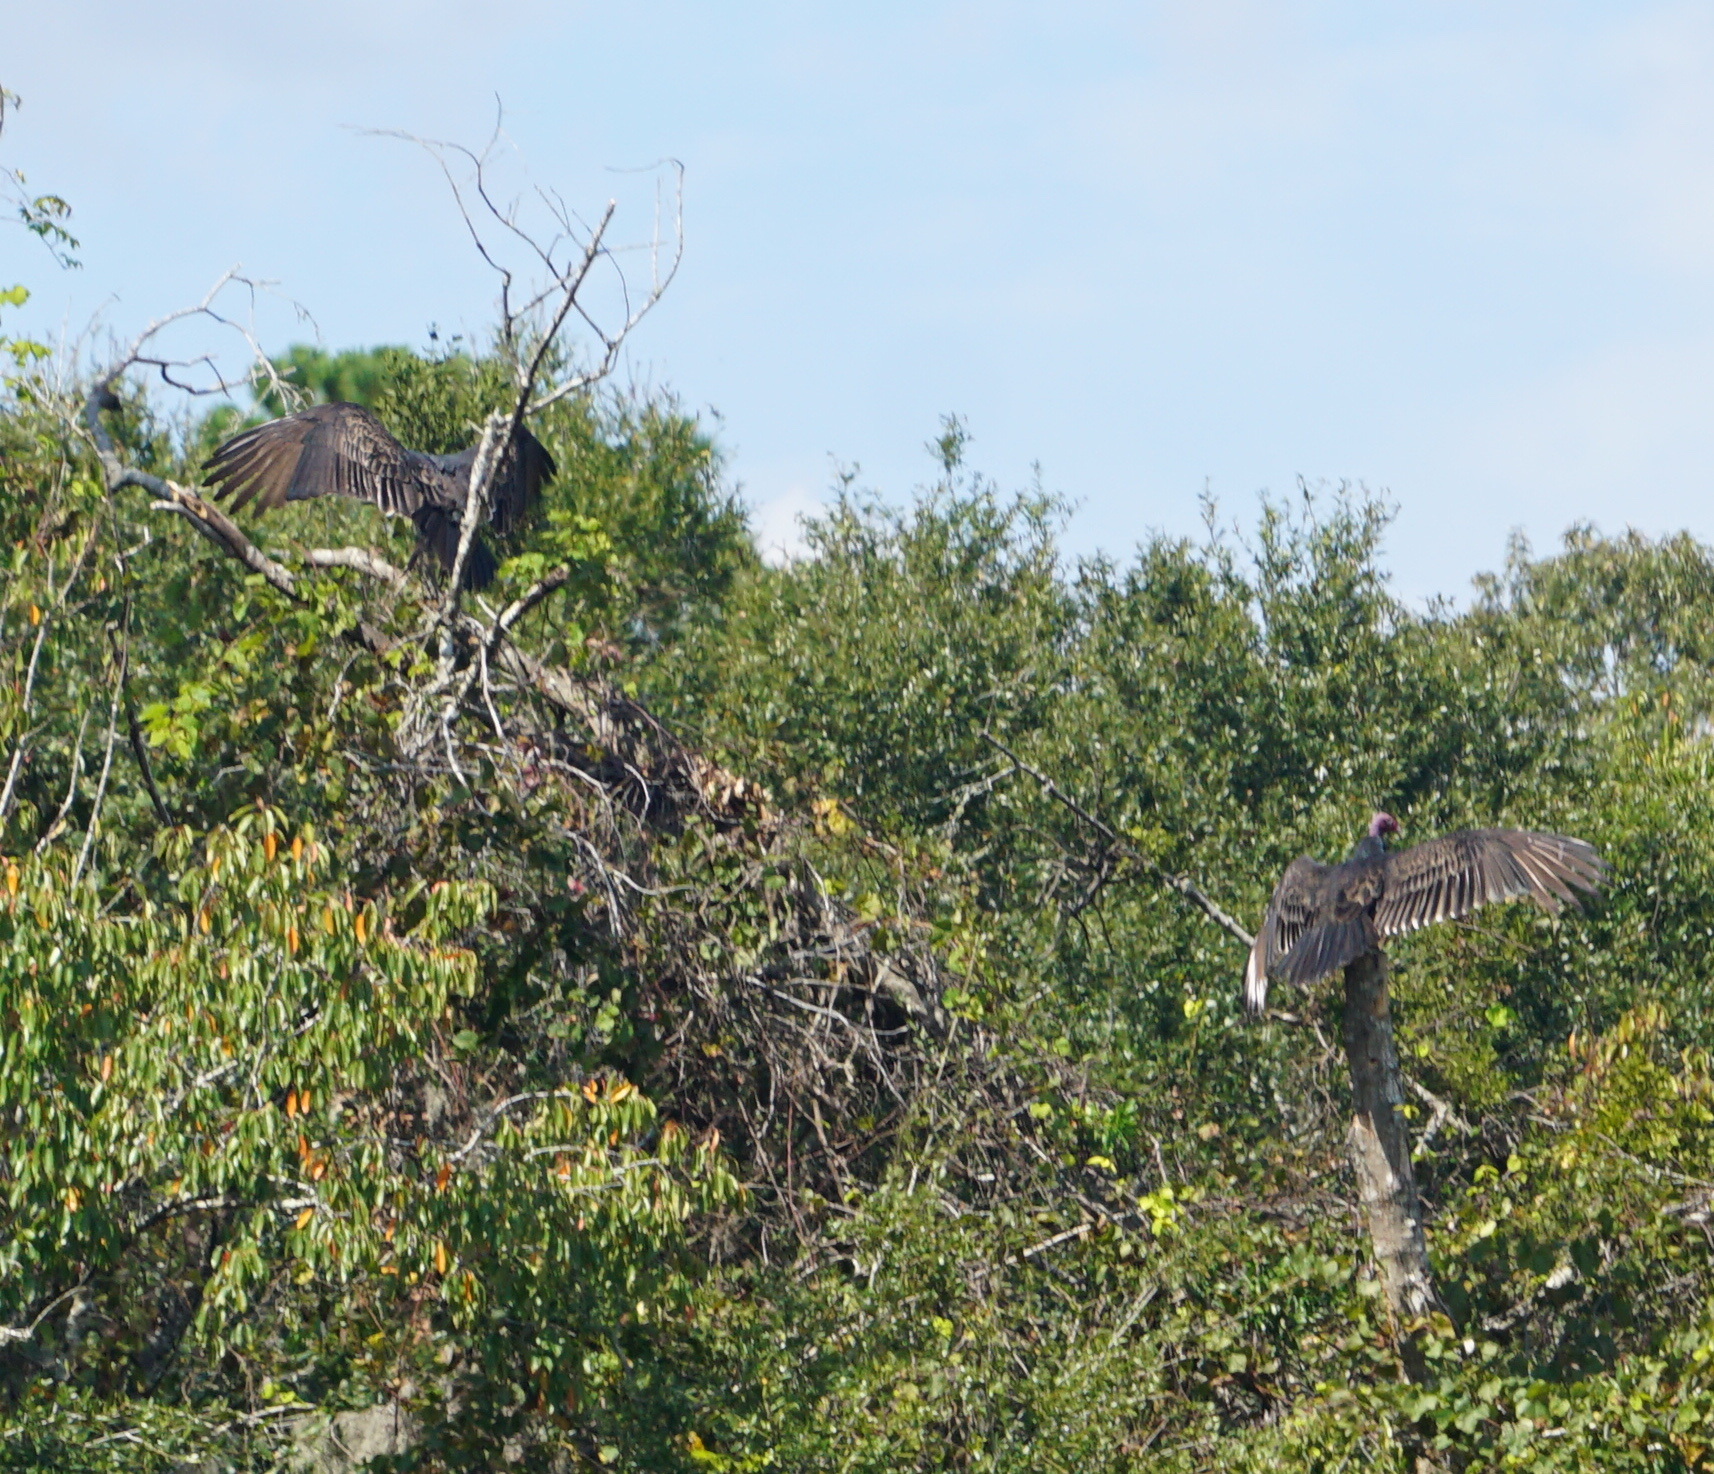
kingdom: Animalia
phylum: Chordata
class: Aves
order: Accipitriformes
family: Cathartidae
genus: Cathartes
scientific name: Cathartes aura
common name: Turkey vulture
